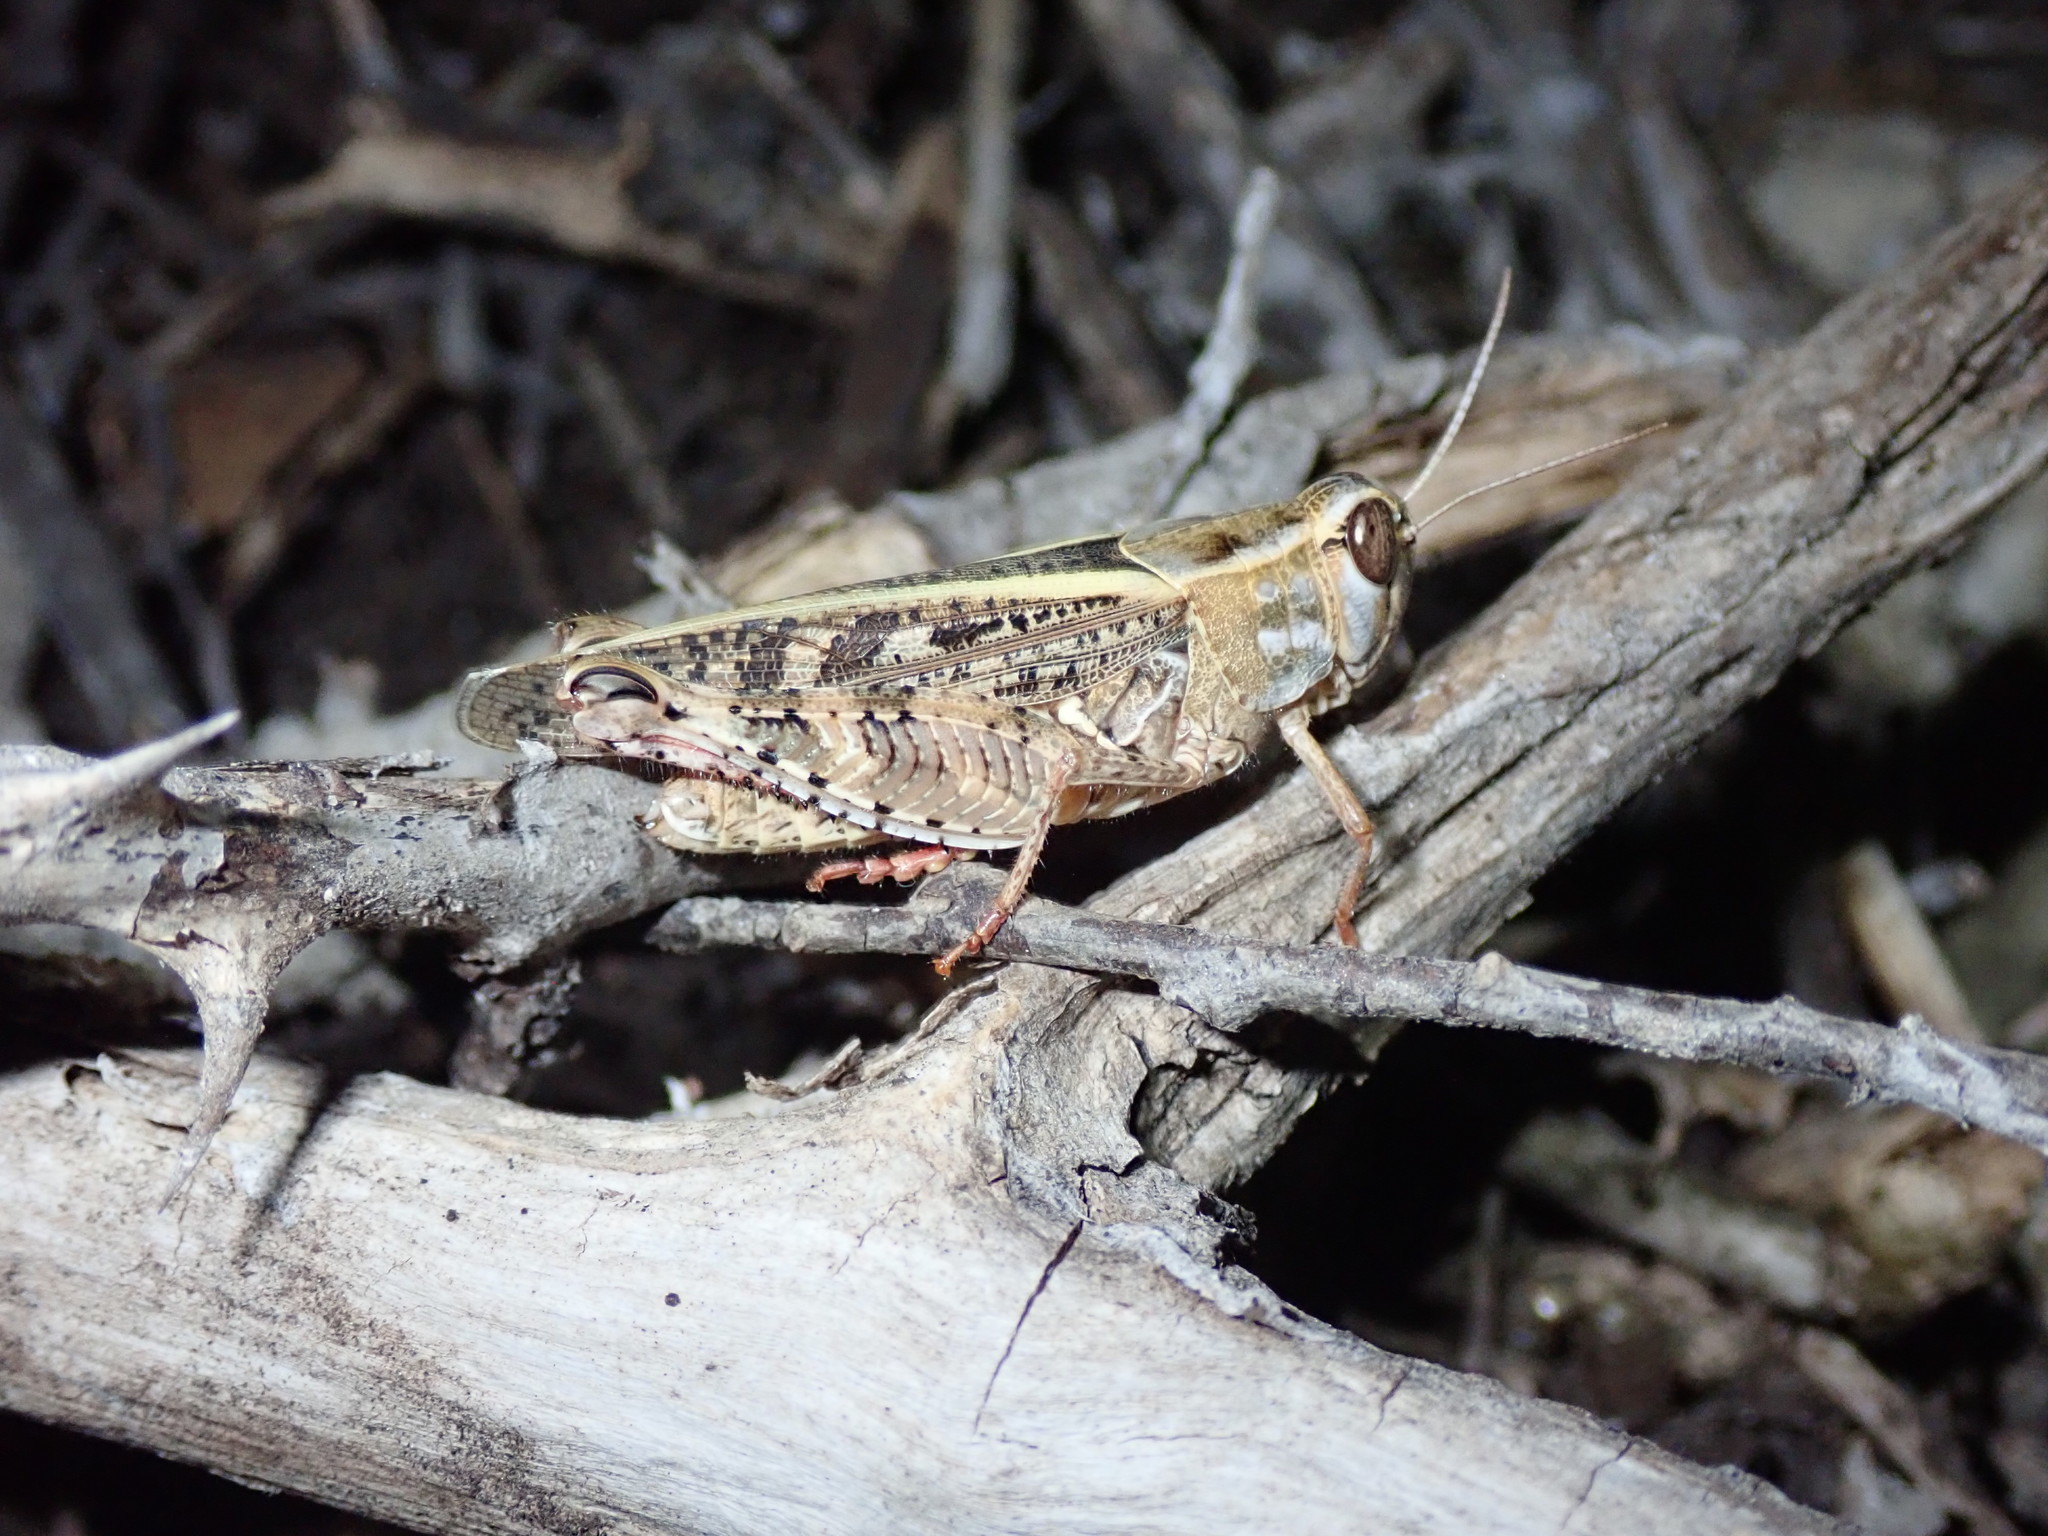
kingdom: Animalia
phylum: Arthropoda
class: Insecta
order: Orthoptera
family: Acrididae
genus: Calliptamus
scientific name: Calliptamus italicus
